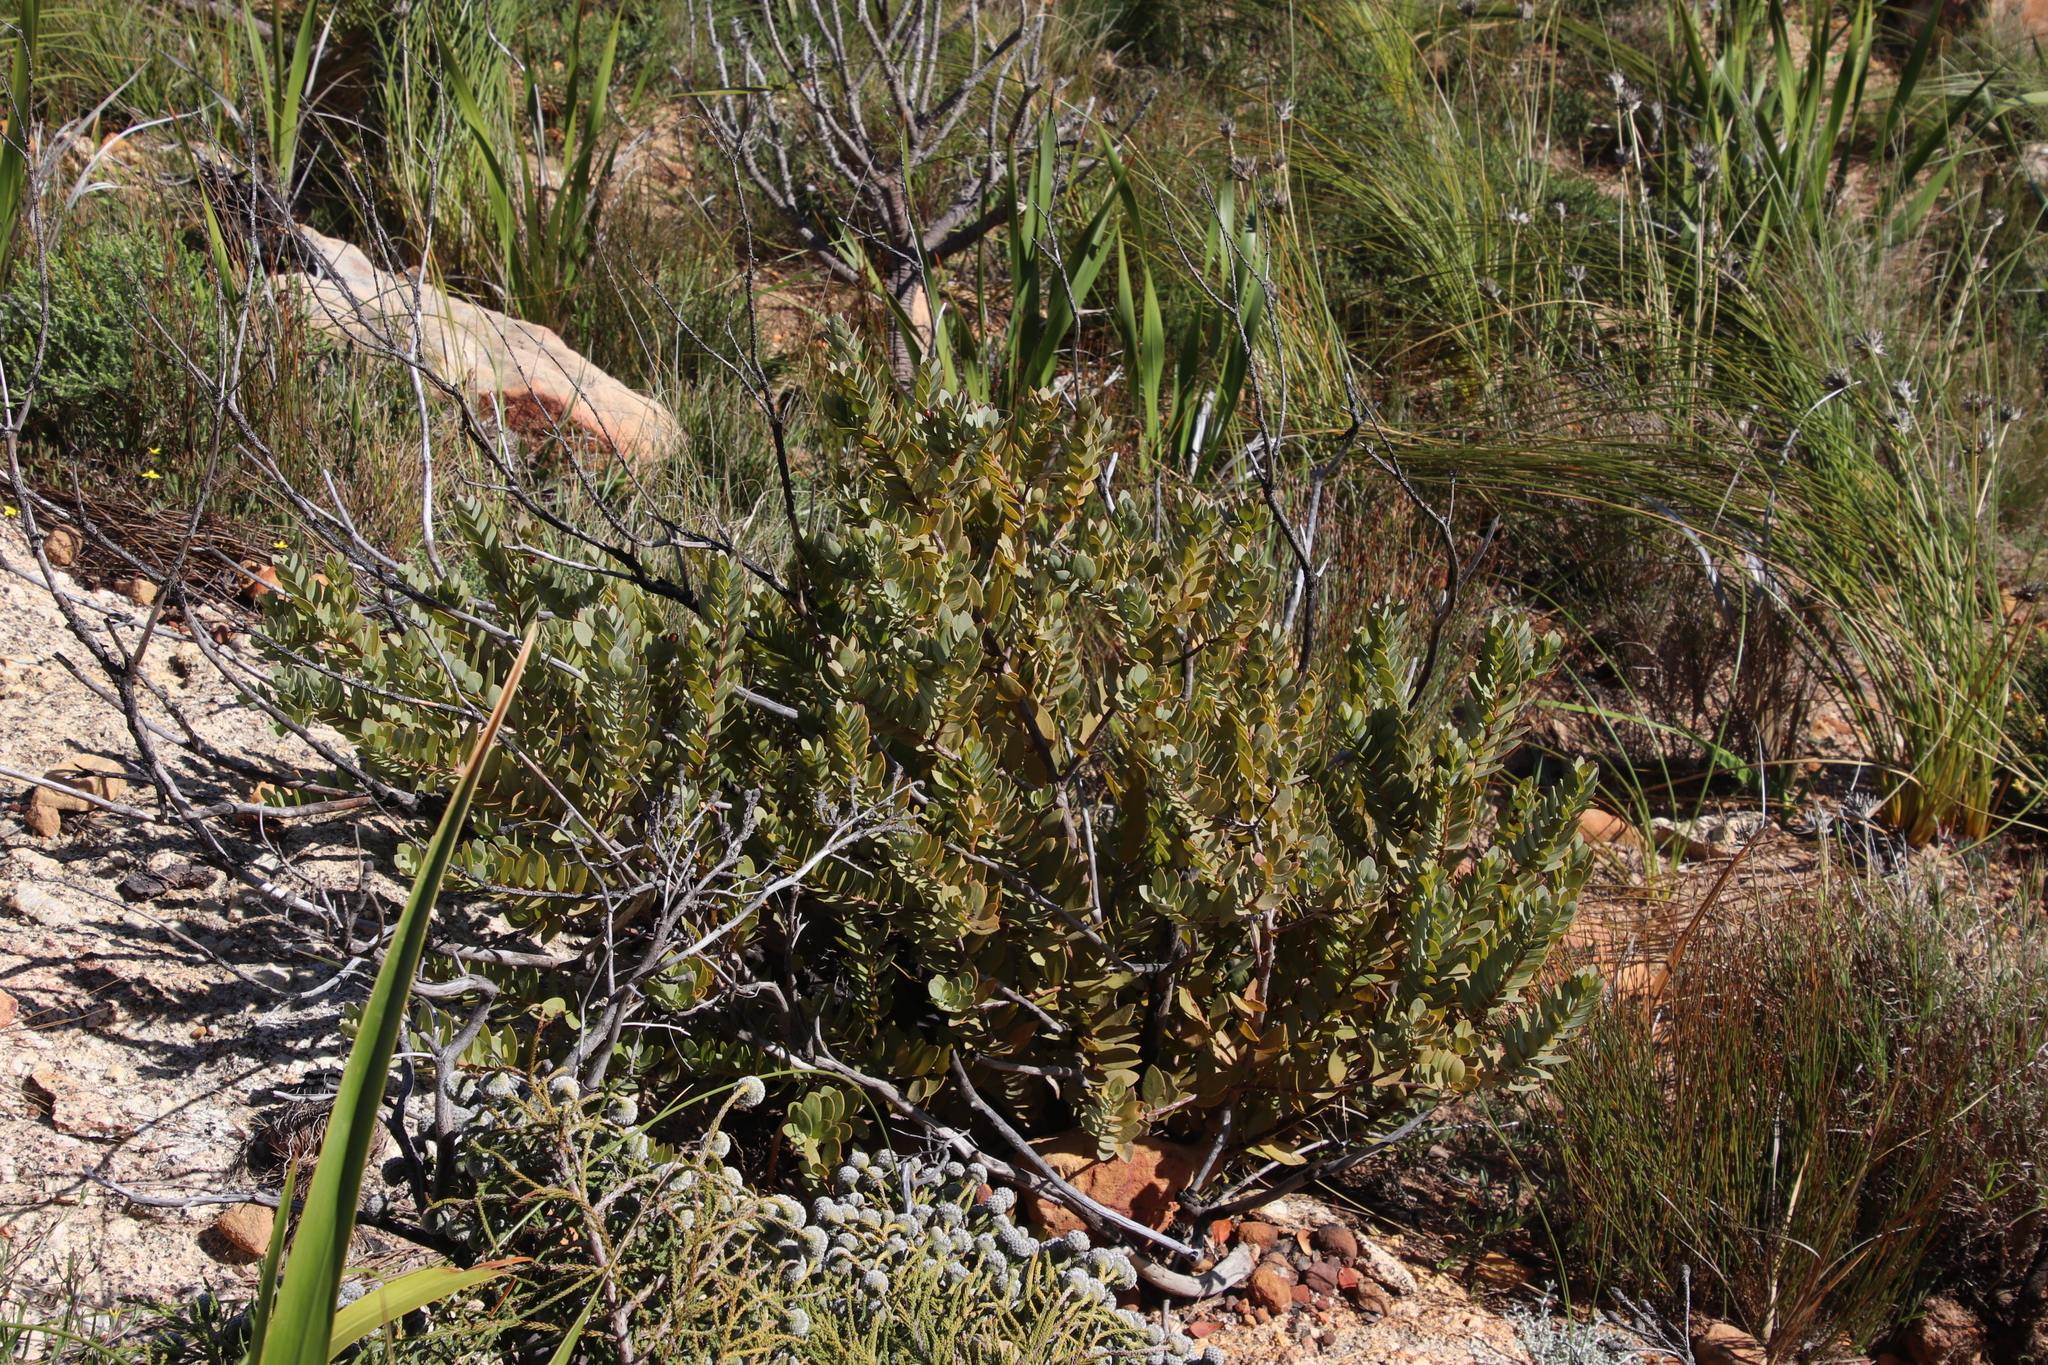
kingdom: Plantae
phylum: Tracheophyta
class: Magnoliopsida
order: Santalales
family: Santalaceae
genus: Osyris
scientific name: Osyris compressa
